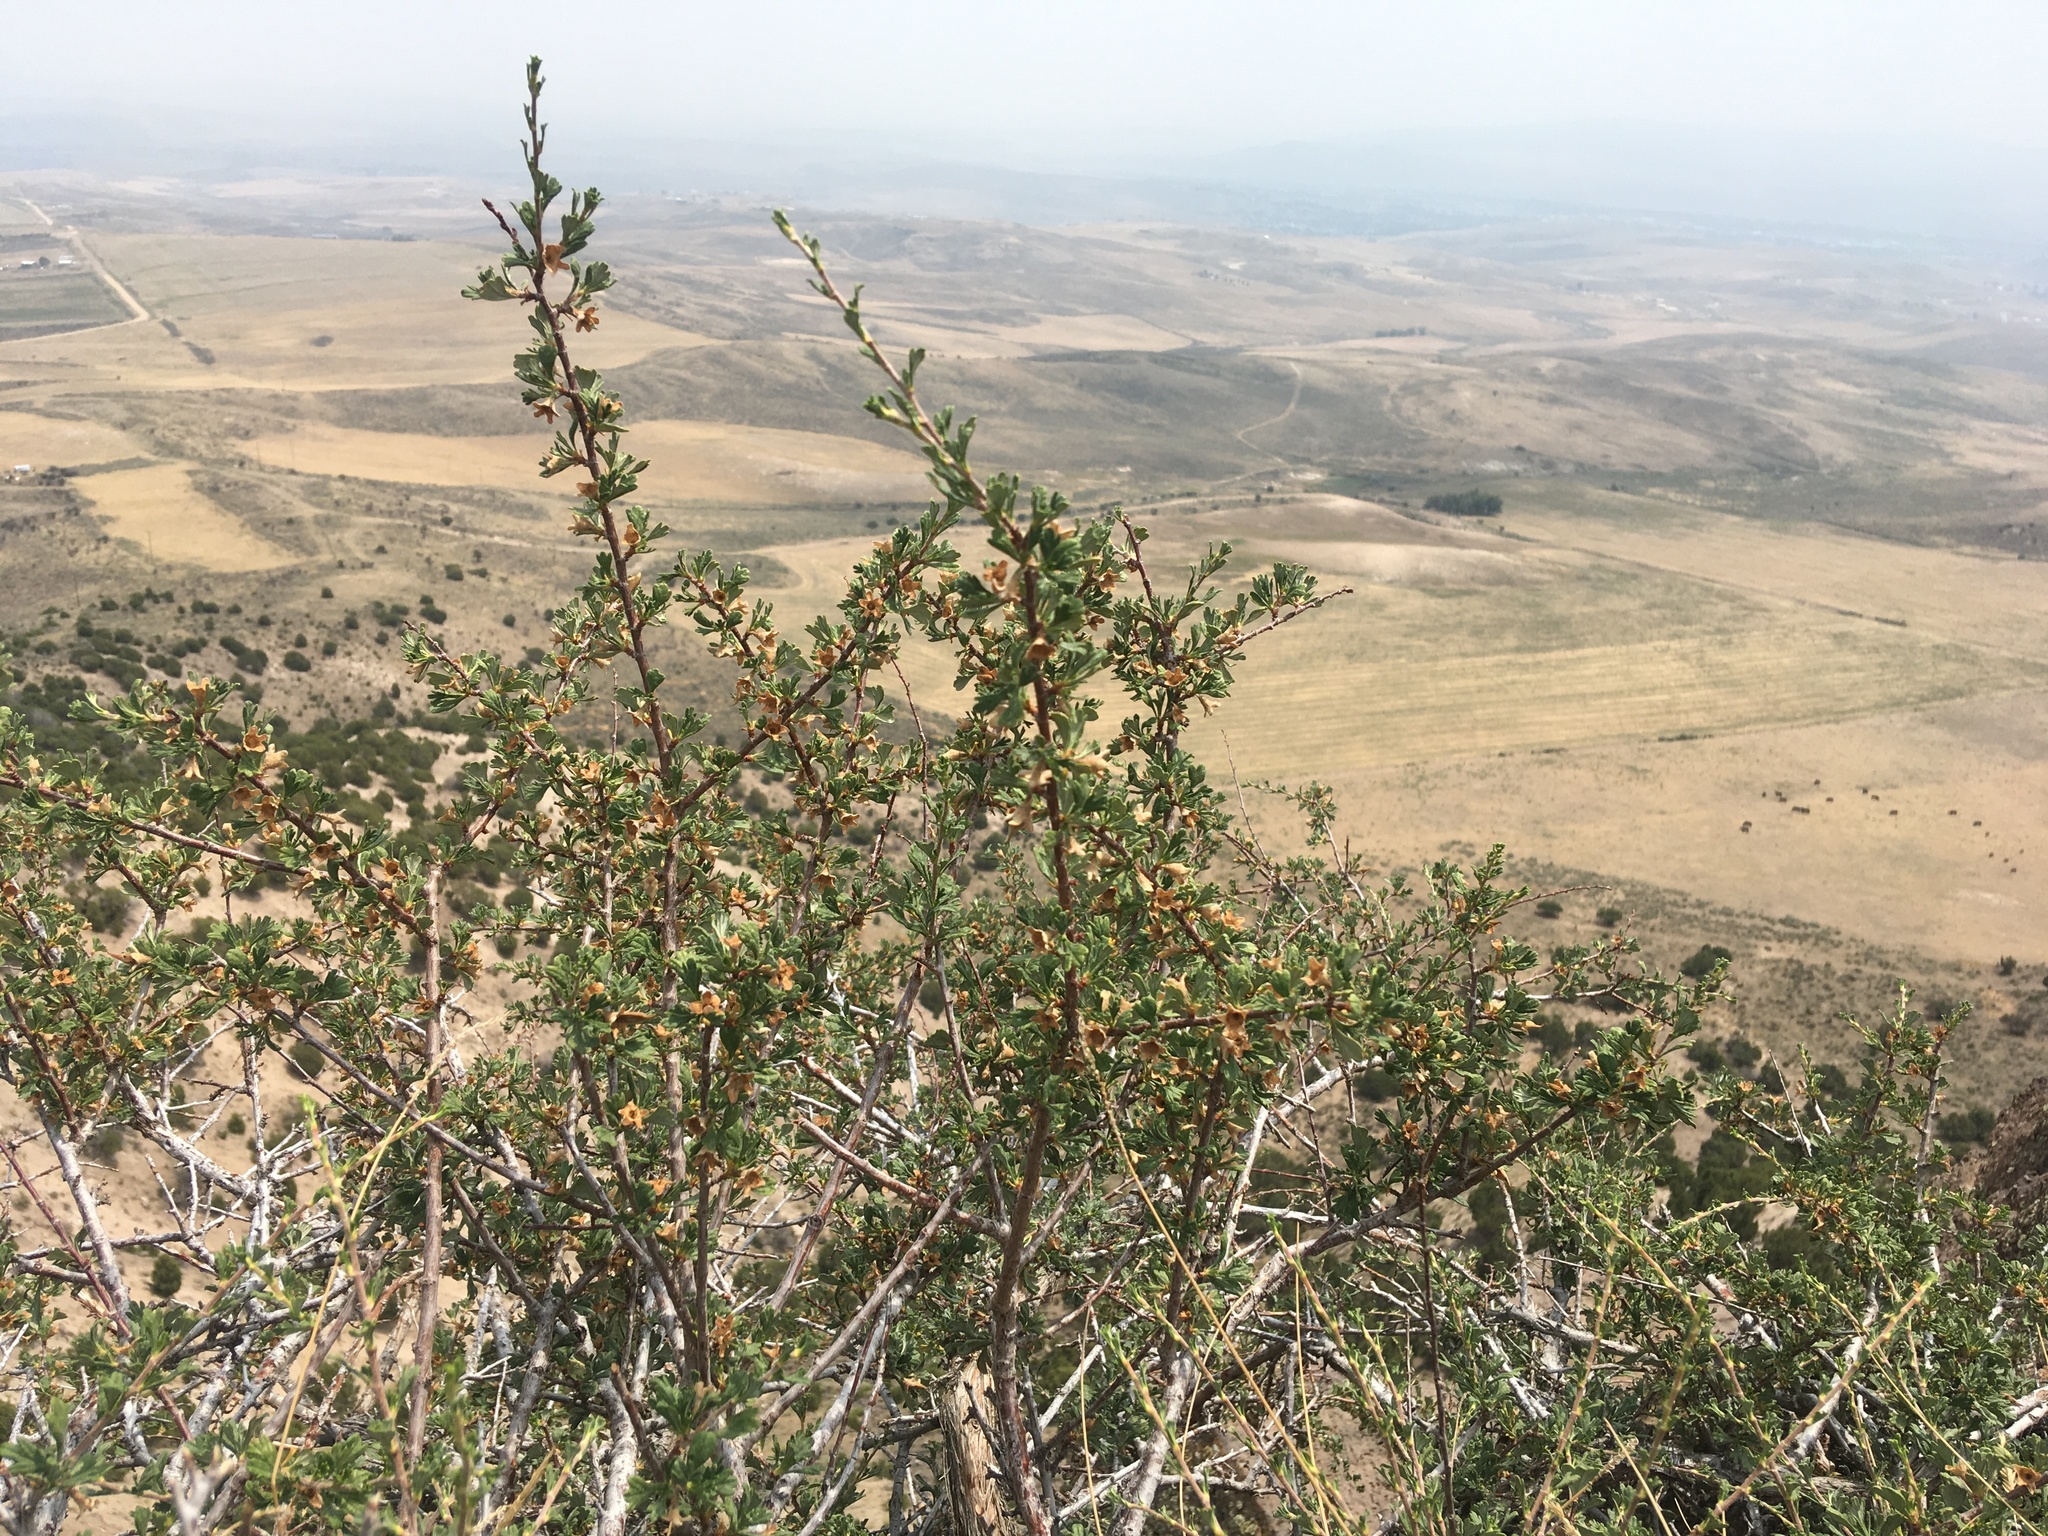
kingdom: Plantae
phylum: Tracheophyta
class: Magnoliopsida
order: Rosales
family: Rosaceae
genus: Purshia
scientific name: Purshia tridentata
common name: Antelope bitterbrush
